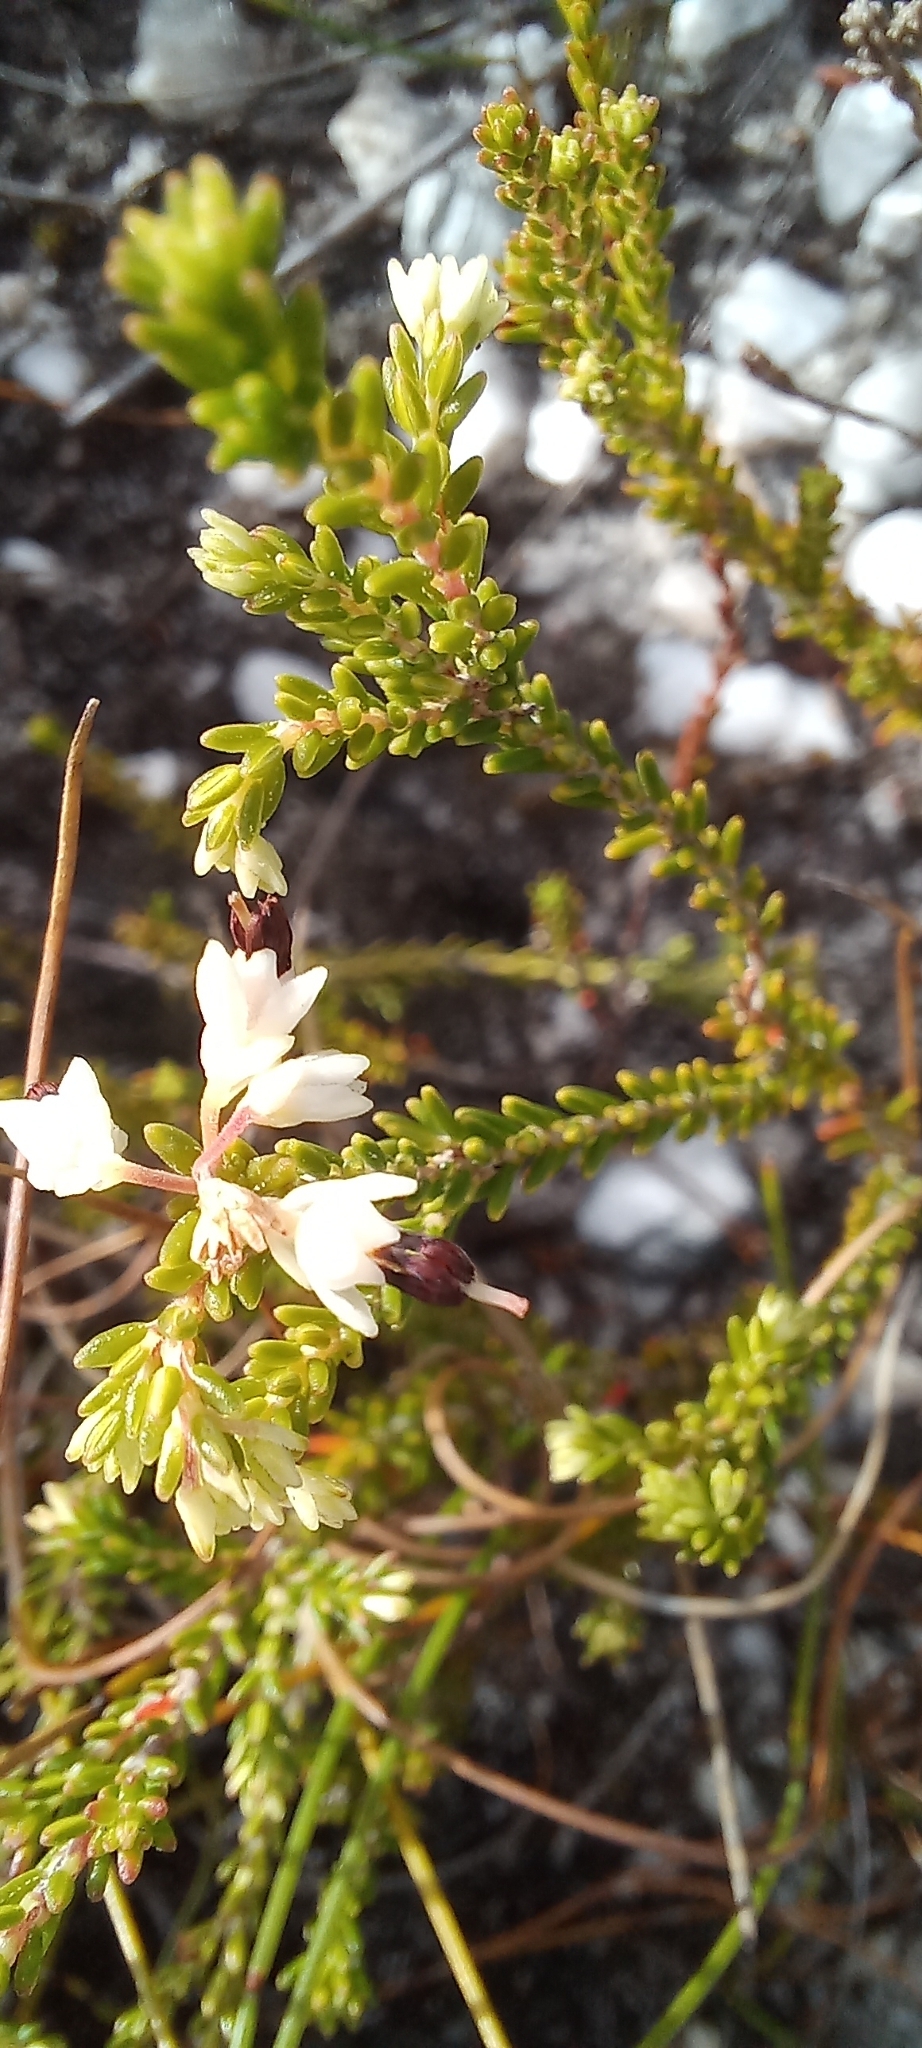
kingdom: Plantae
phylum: Tracheophyta
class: Magnoliopsida
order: Ericales
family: Ericaceae
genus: Erica
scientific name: Erica imbricata
